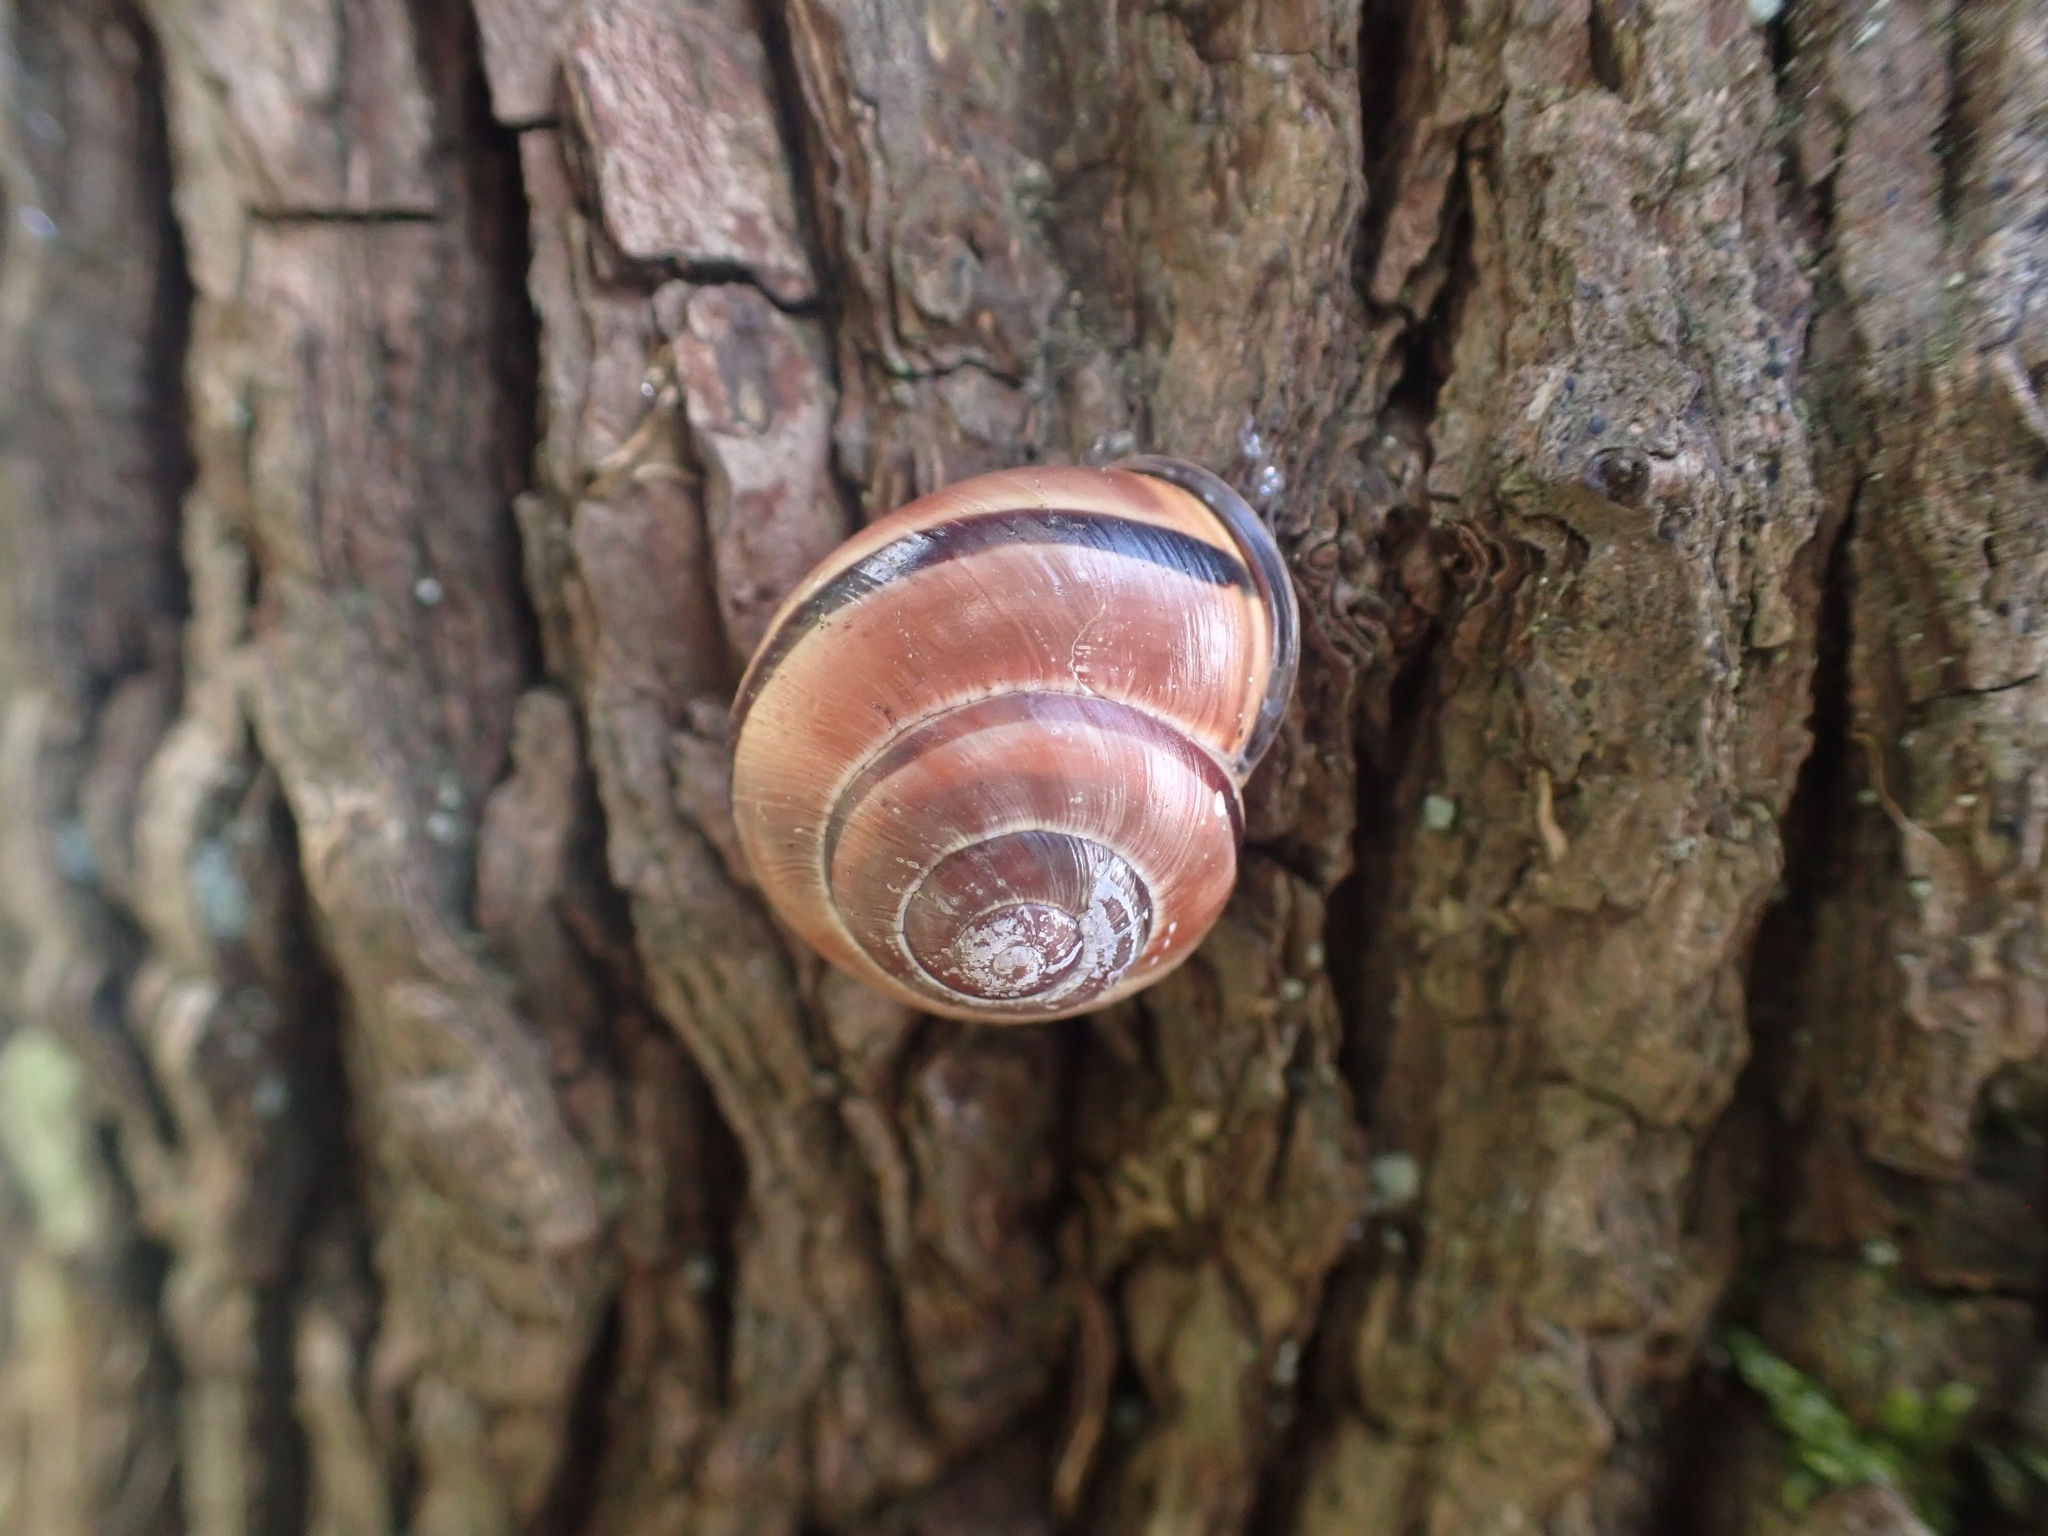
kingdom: Animalia
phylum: Mollusca
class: Gastropoda
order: Stylommatophora
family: Helicidae
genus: Cepaea
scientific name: Cepaea nemoralis
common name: Grovesnail
